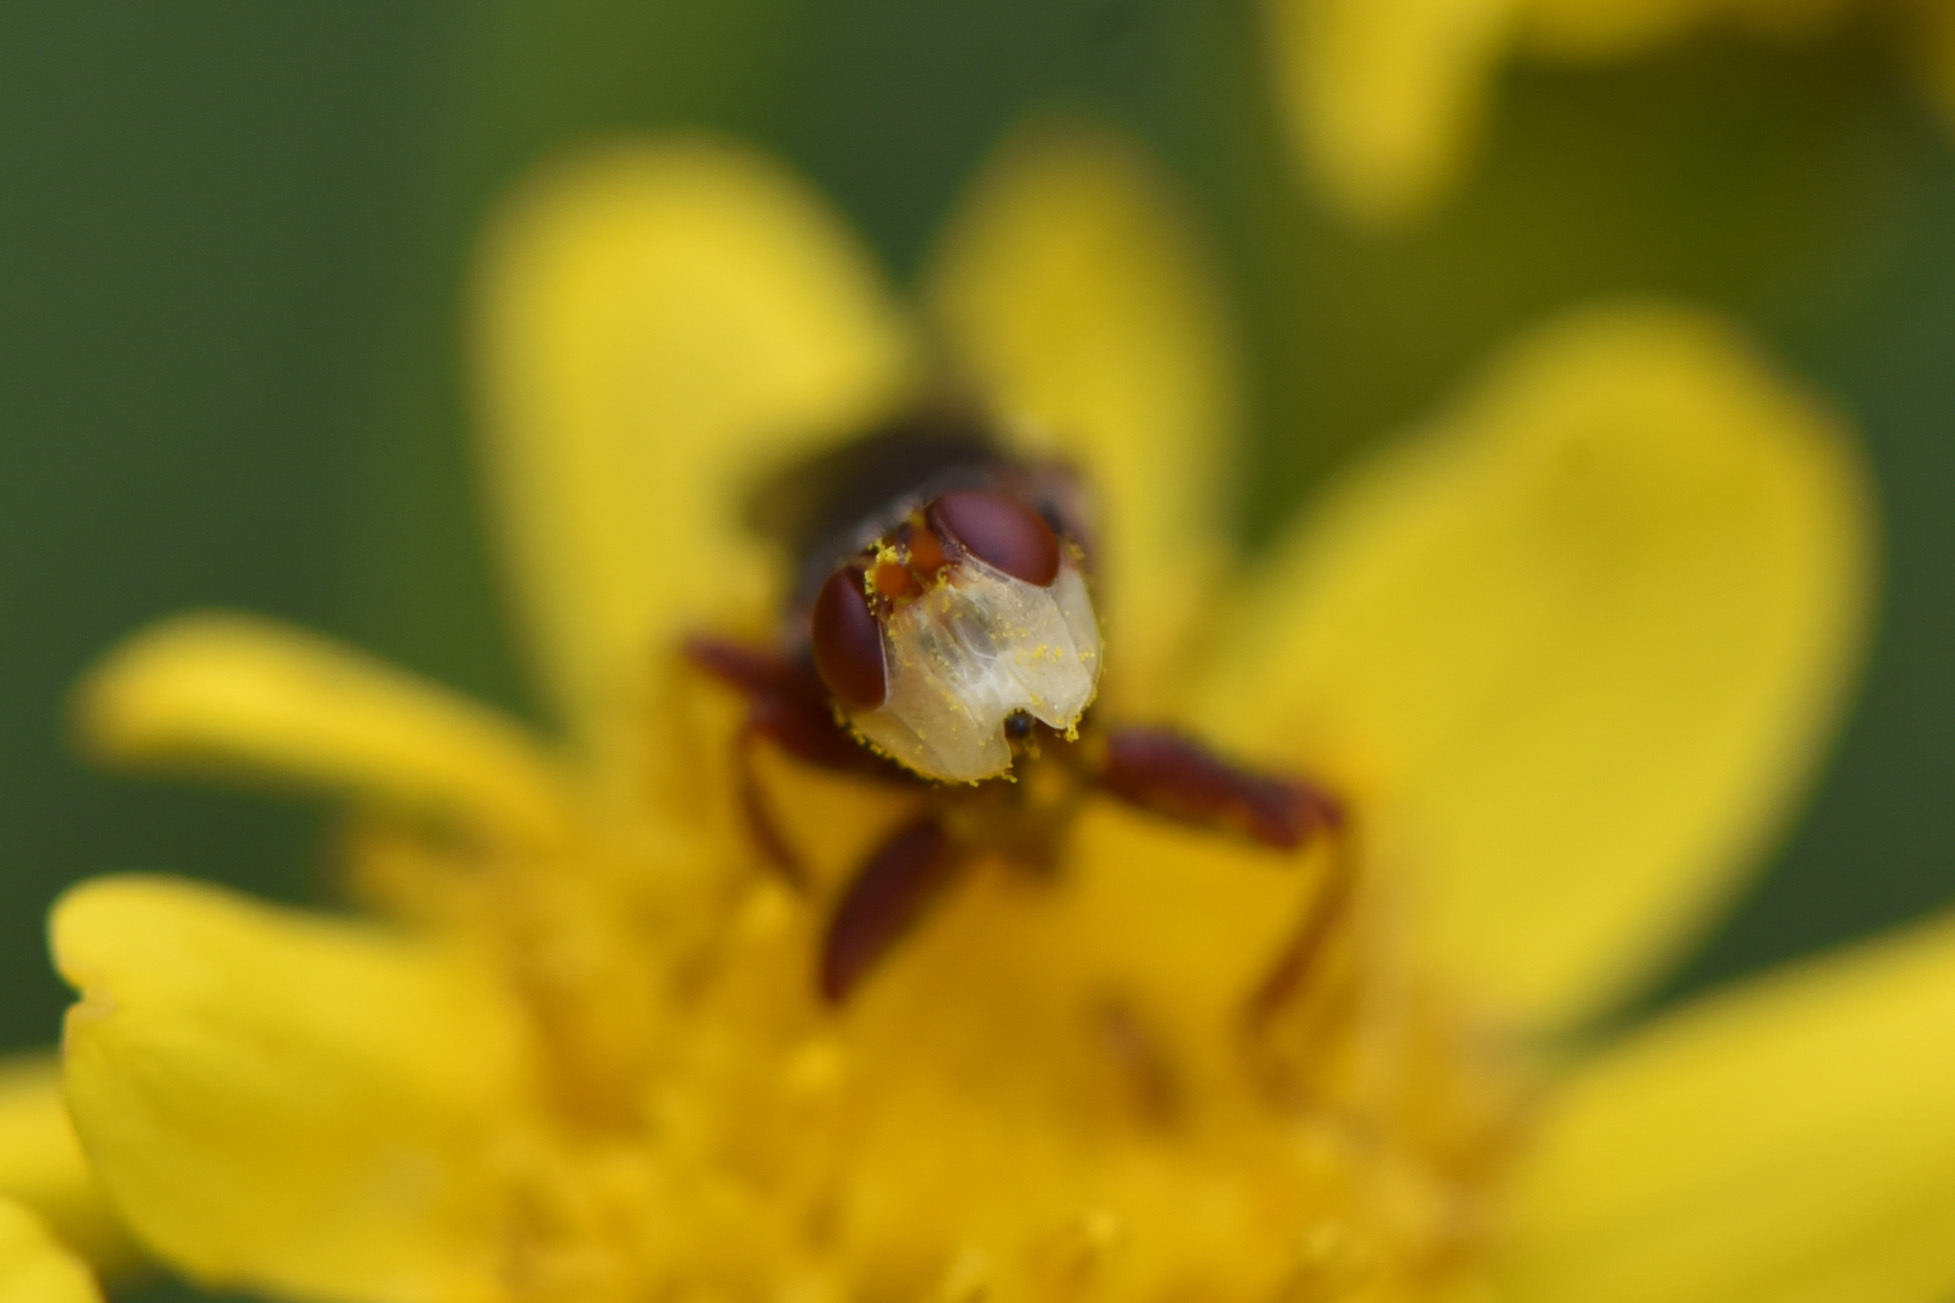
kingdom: Animalia
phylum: Arthropoda
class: Insecta
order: Diptera
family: Conopidae
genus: Myopa
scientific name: Myopa rubida
